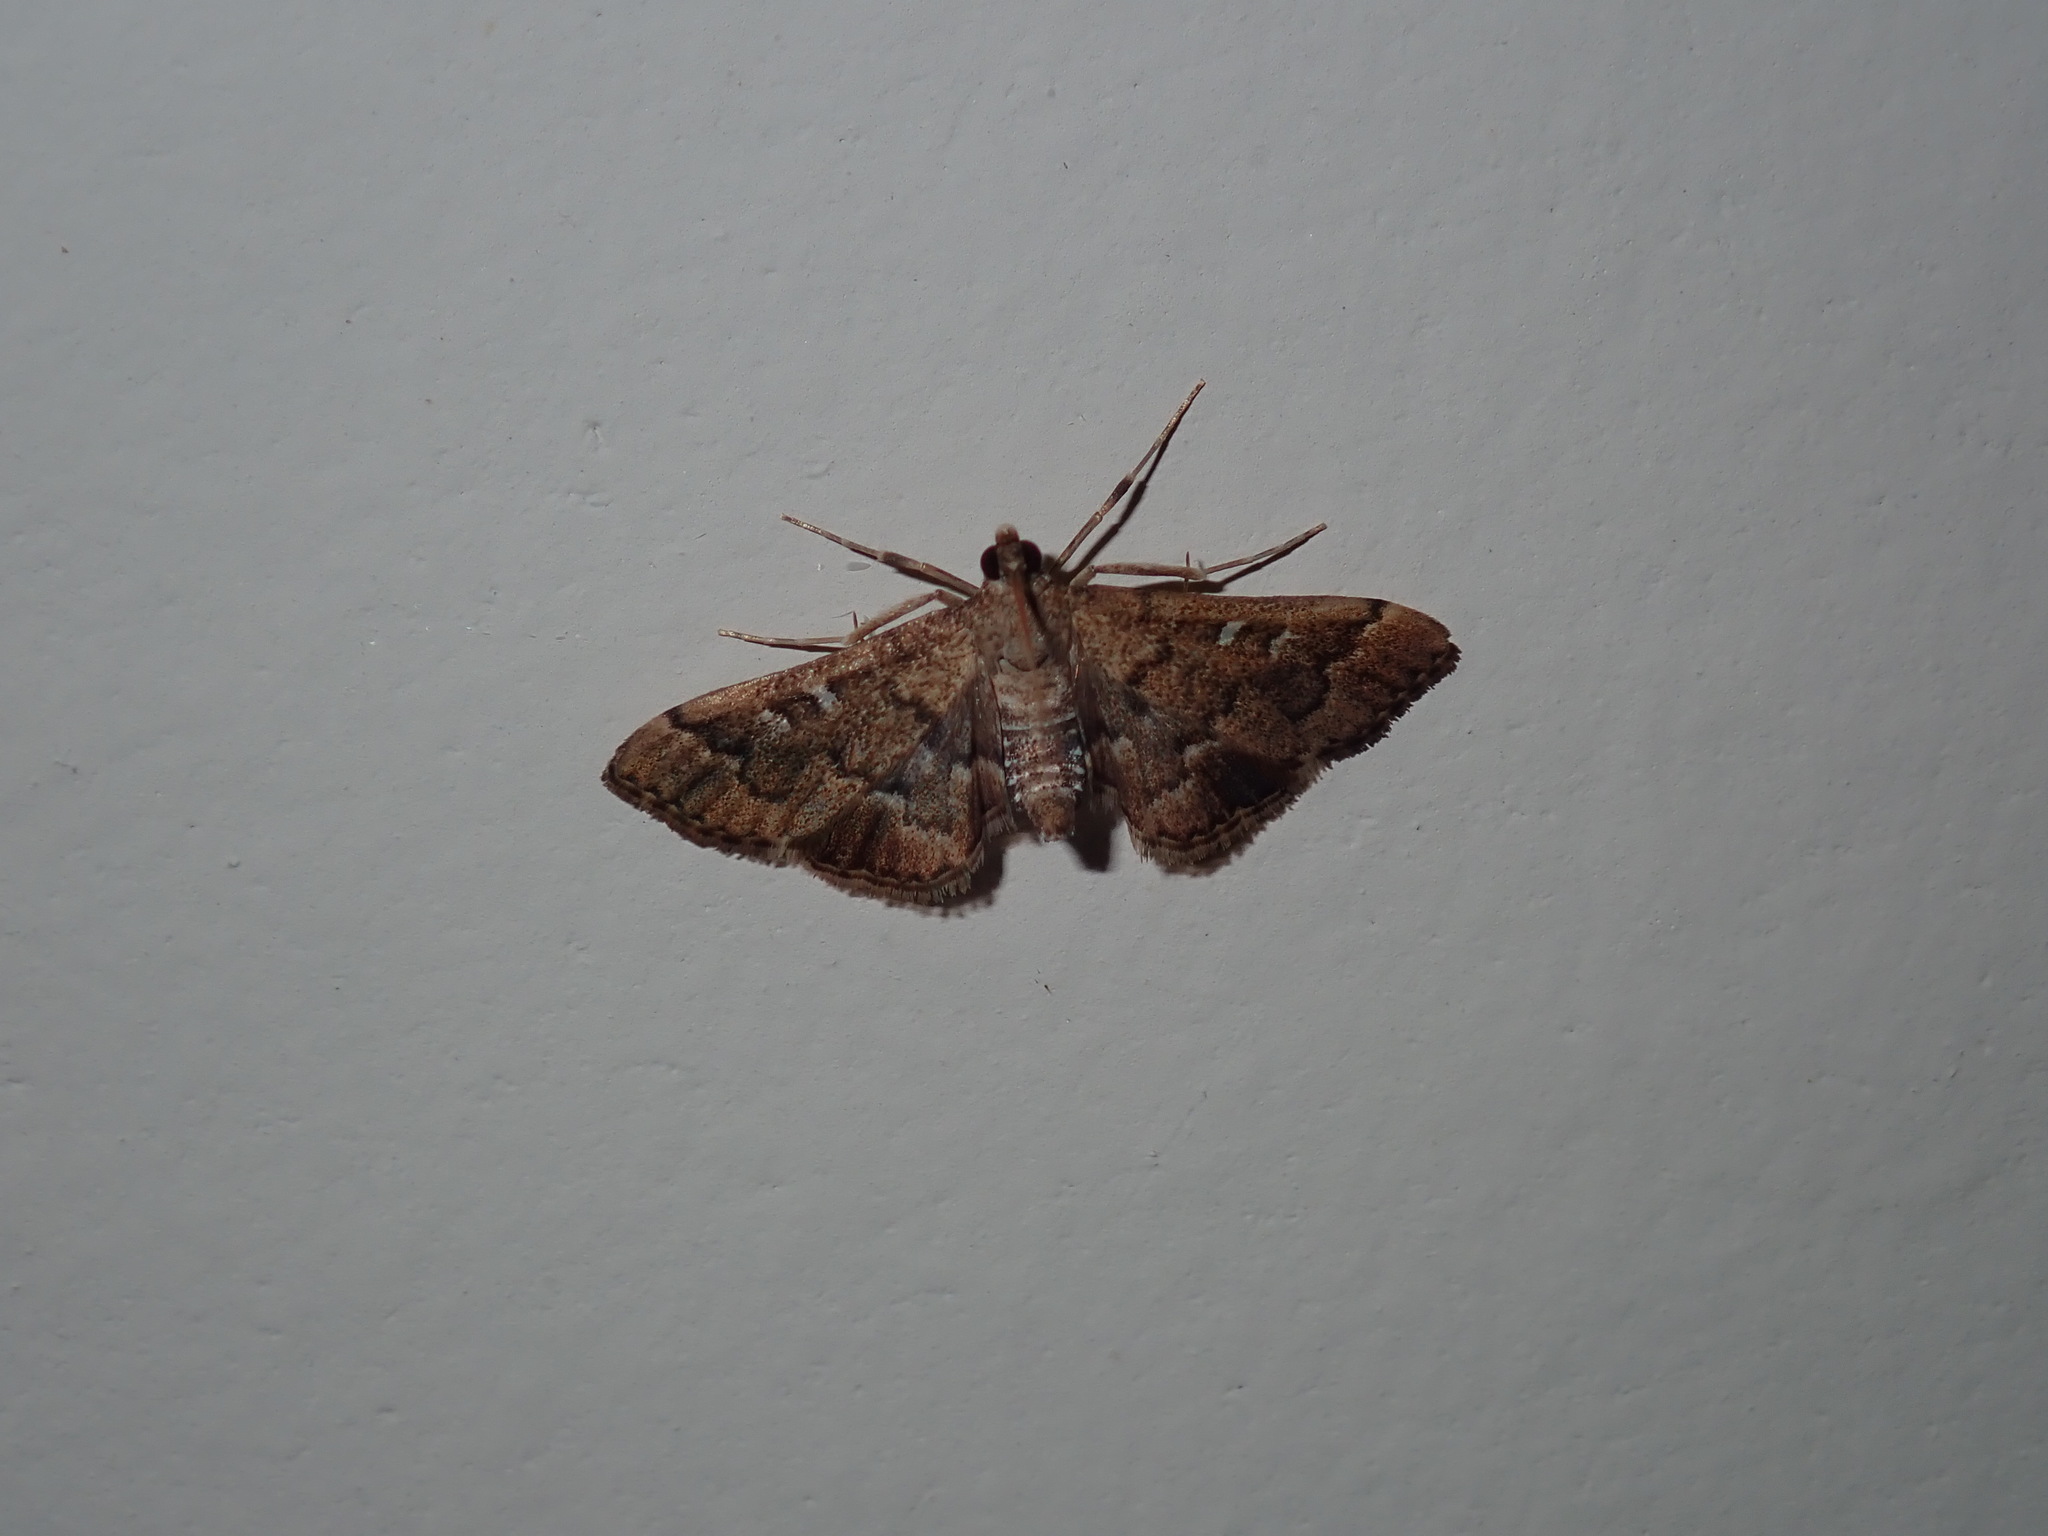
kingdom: Animalia
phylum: Arthropoda
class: Insecta
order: Lepidoptera
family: Crambidae
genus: Nacoleia
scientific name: Nacoleia rhoeoalis
